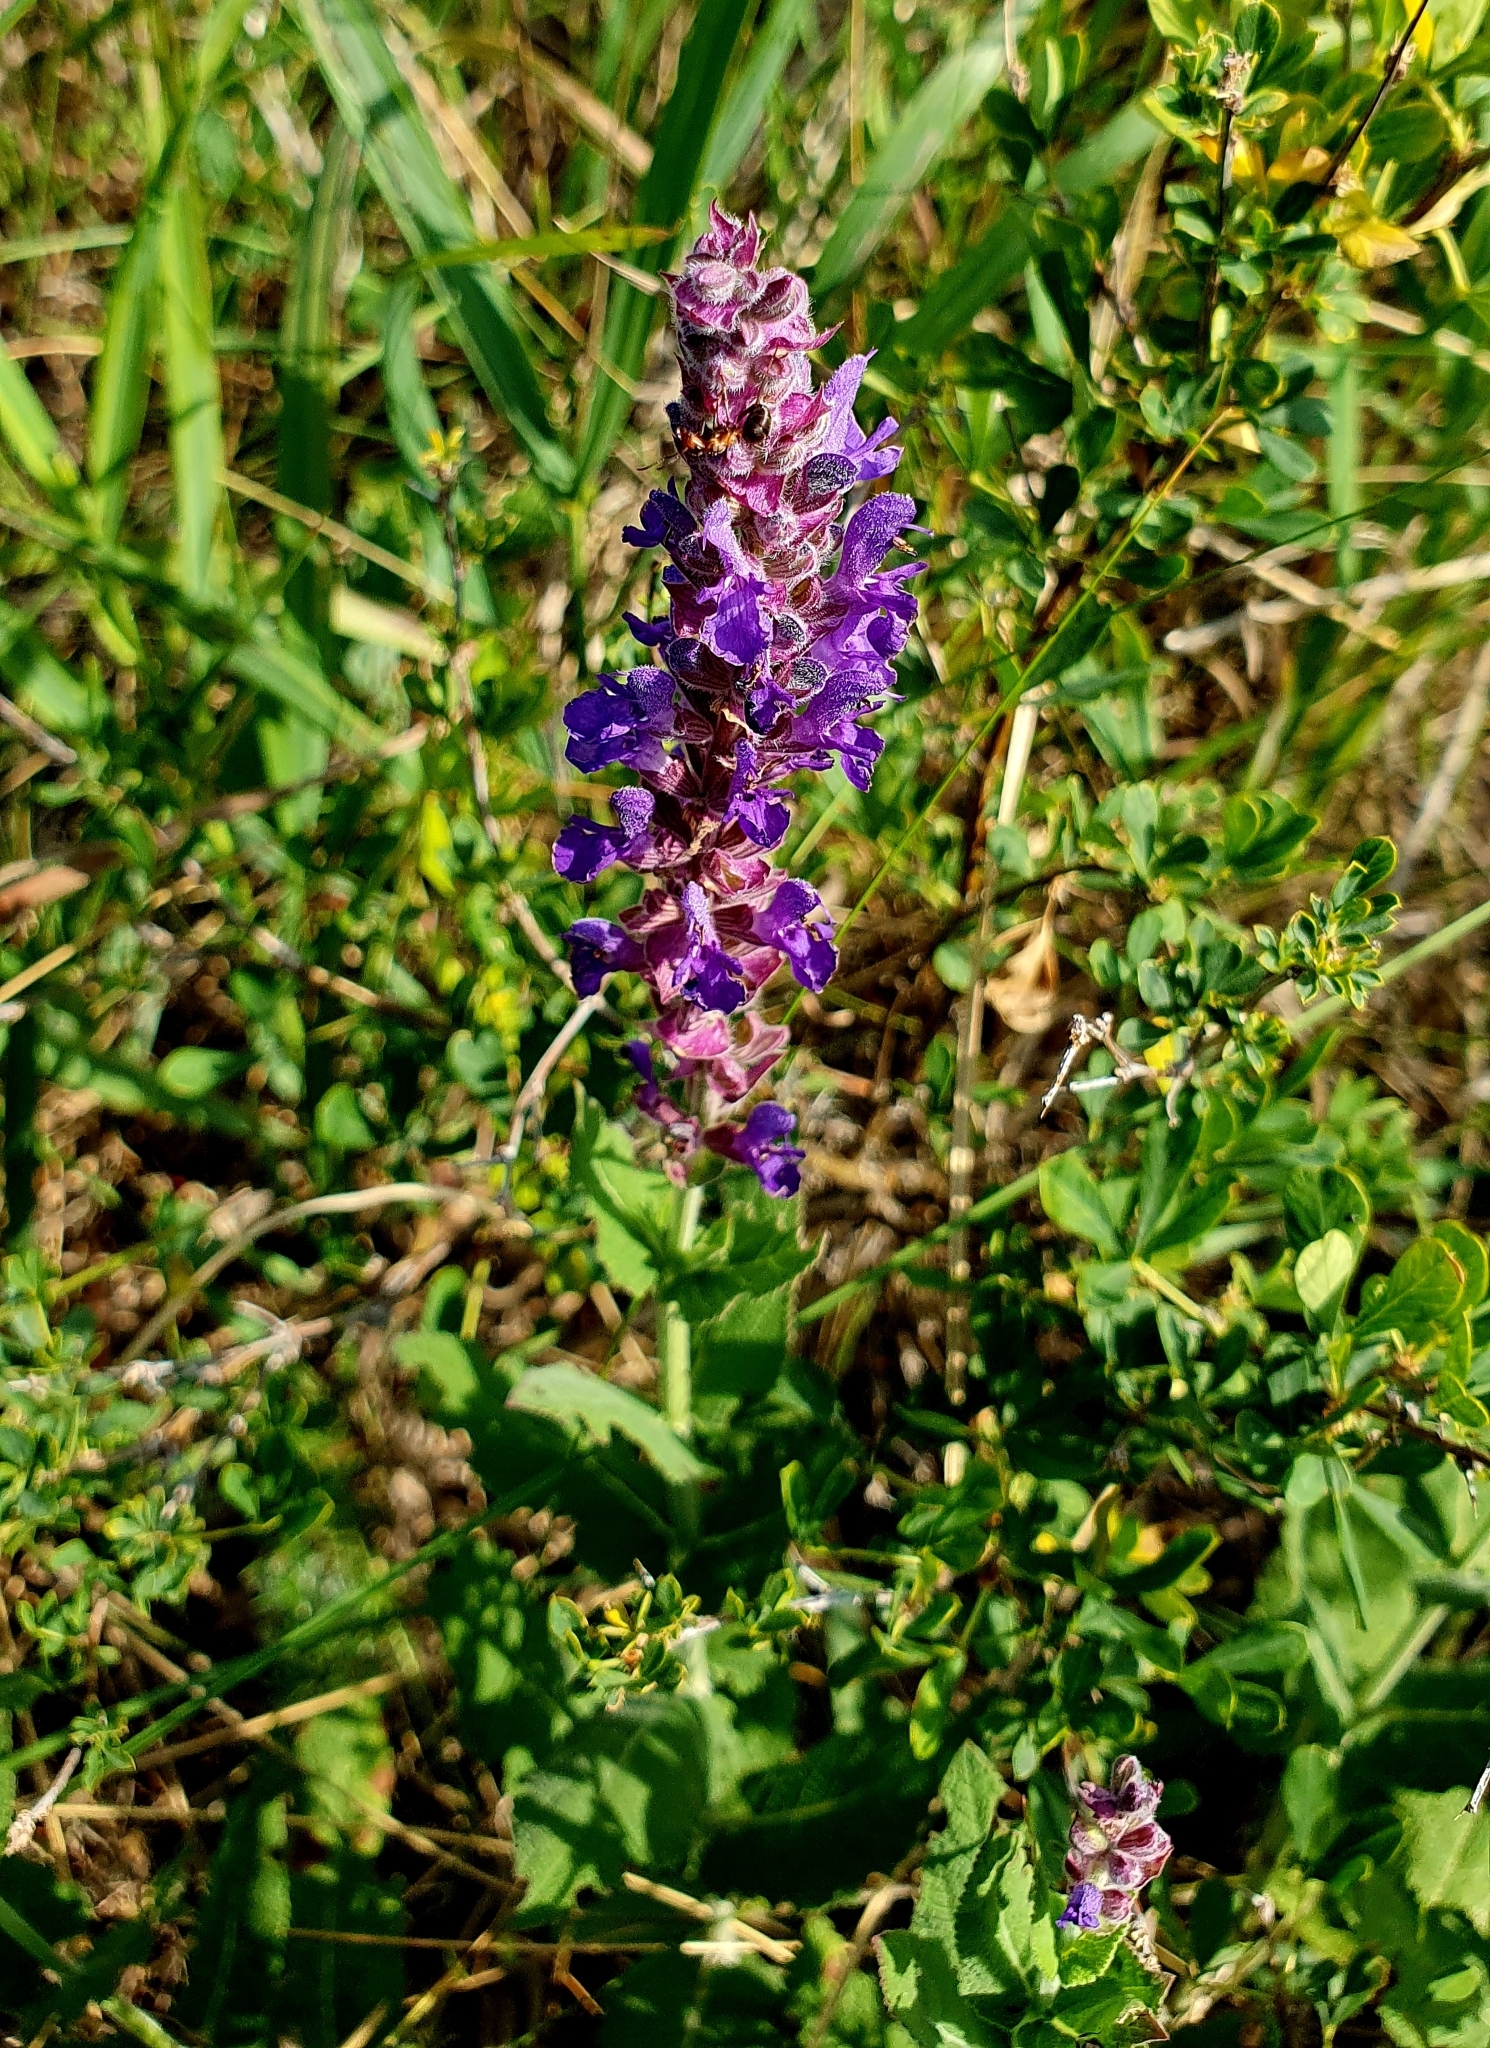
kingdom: Plantae
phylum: Tracheophyta
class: Magnoliopsida
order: Lamiales
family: Lamiaceae
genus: Salvia
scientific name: Salvia nemorosa
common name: Balkan clary
